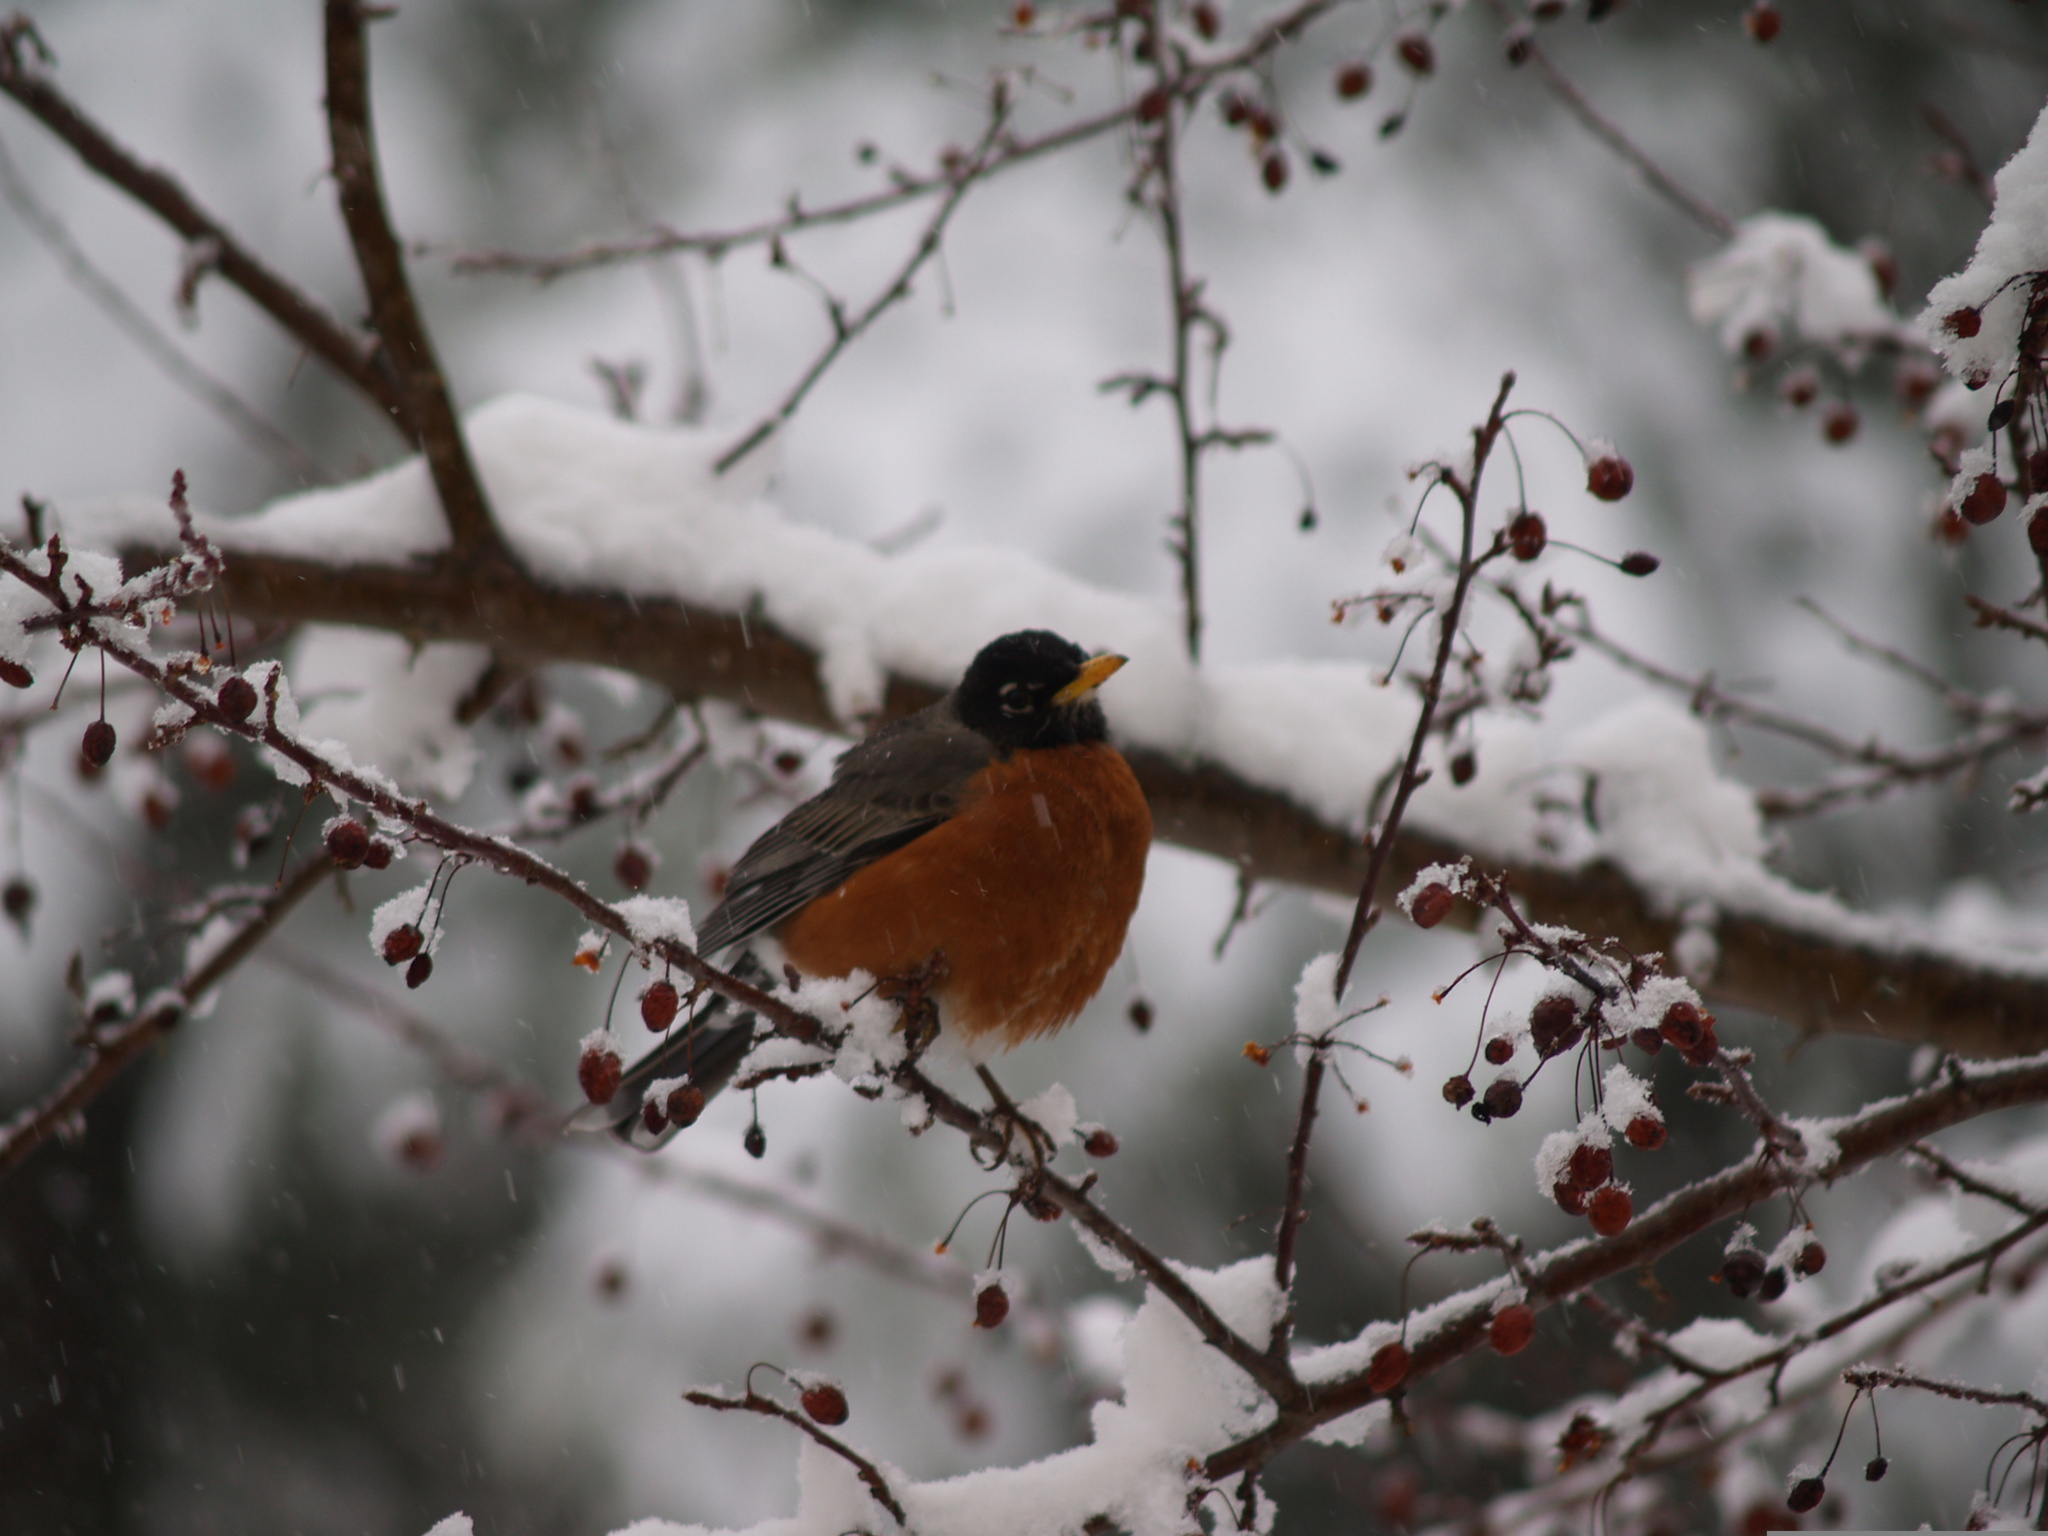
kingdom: Animalia
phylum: Chordata
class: Aves
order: Passeriformes
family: Turdidae
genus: Turdus
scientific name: Turdus migratorius
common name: American robin
